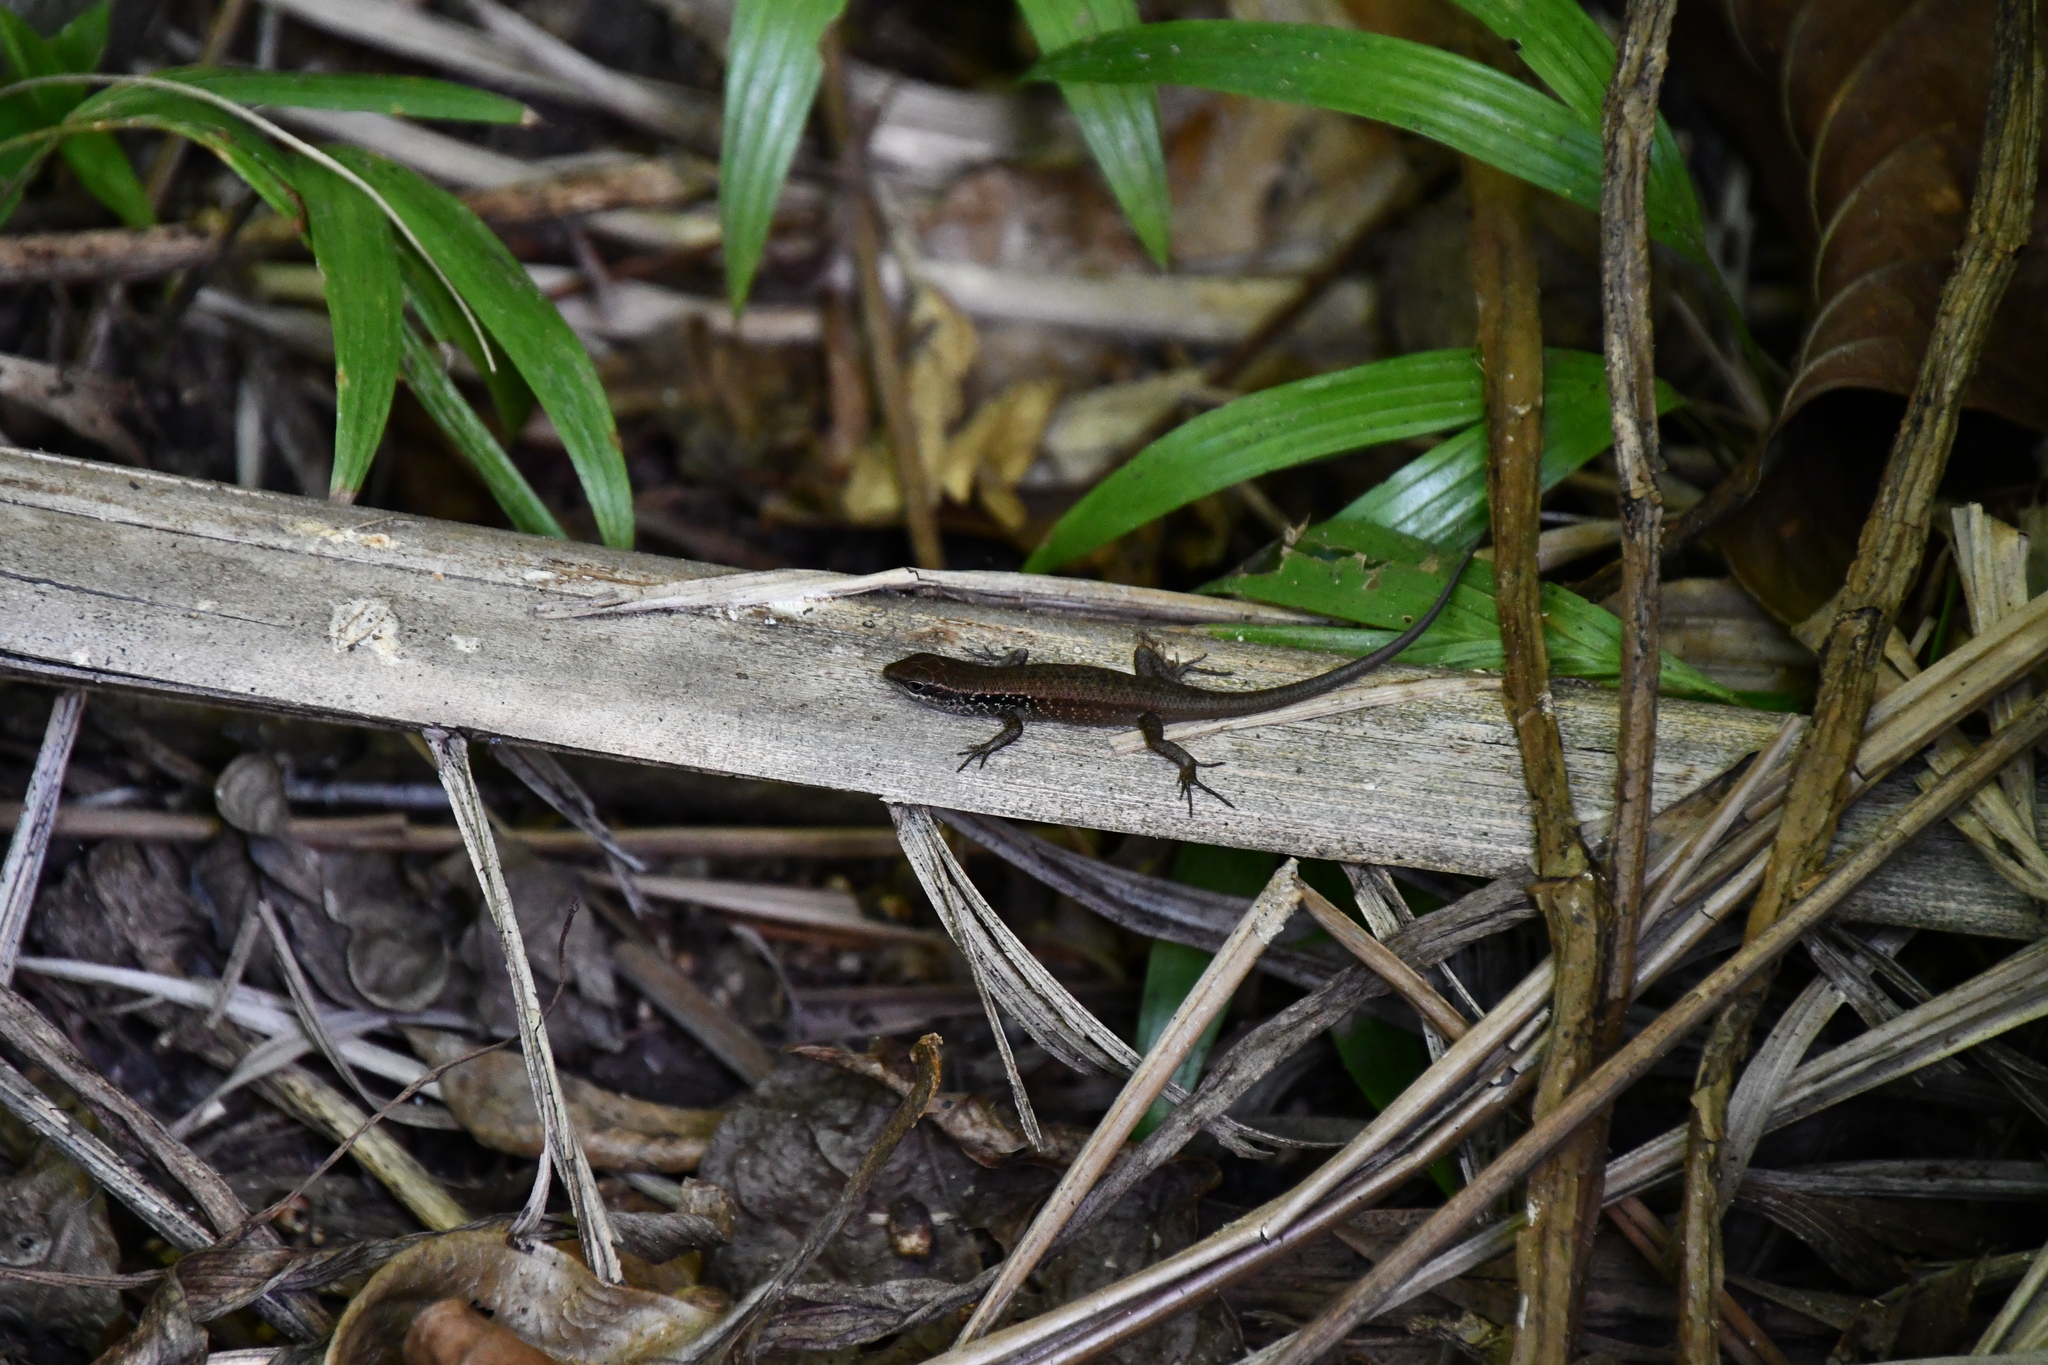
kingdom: Animalia
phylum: Chordata
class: Squamata
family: Scincidae
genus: Carlia
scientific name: Carlia longipes
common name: Closed-litter rainbow-skink
